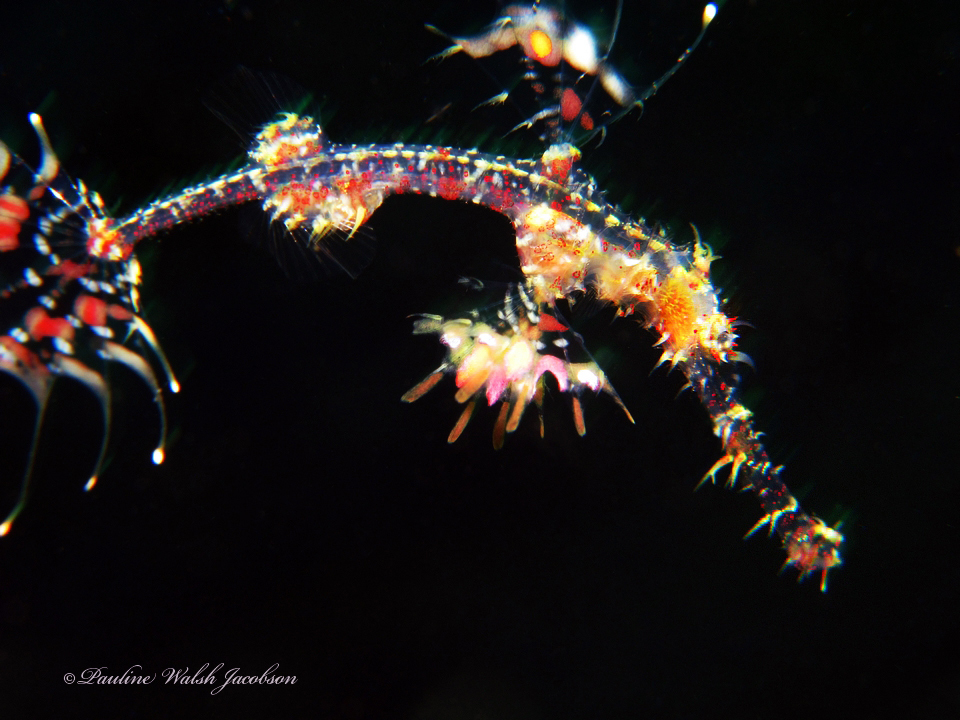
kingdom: Animalia
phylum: Chordata
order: Syngnathiformes
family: Solenostomidae
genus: Solenostomus
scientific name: Solenostomus paradoxus
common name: Ghost pipefish
